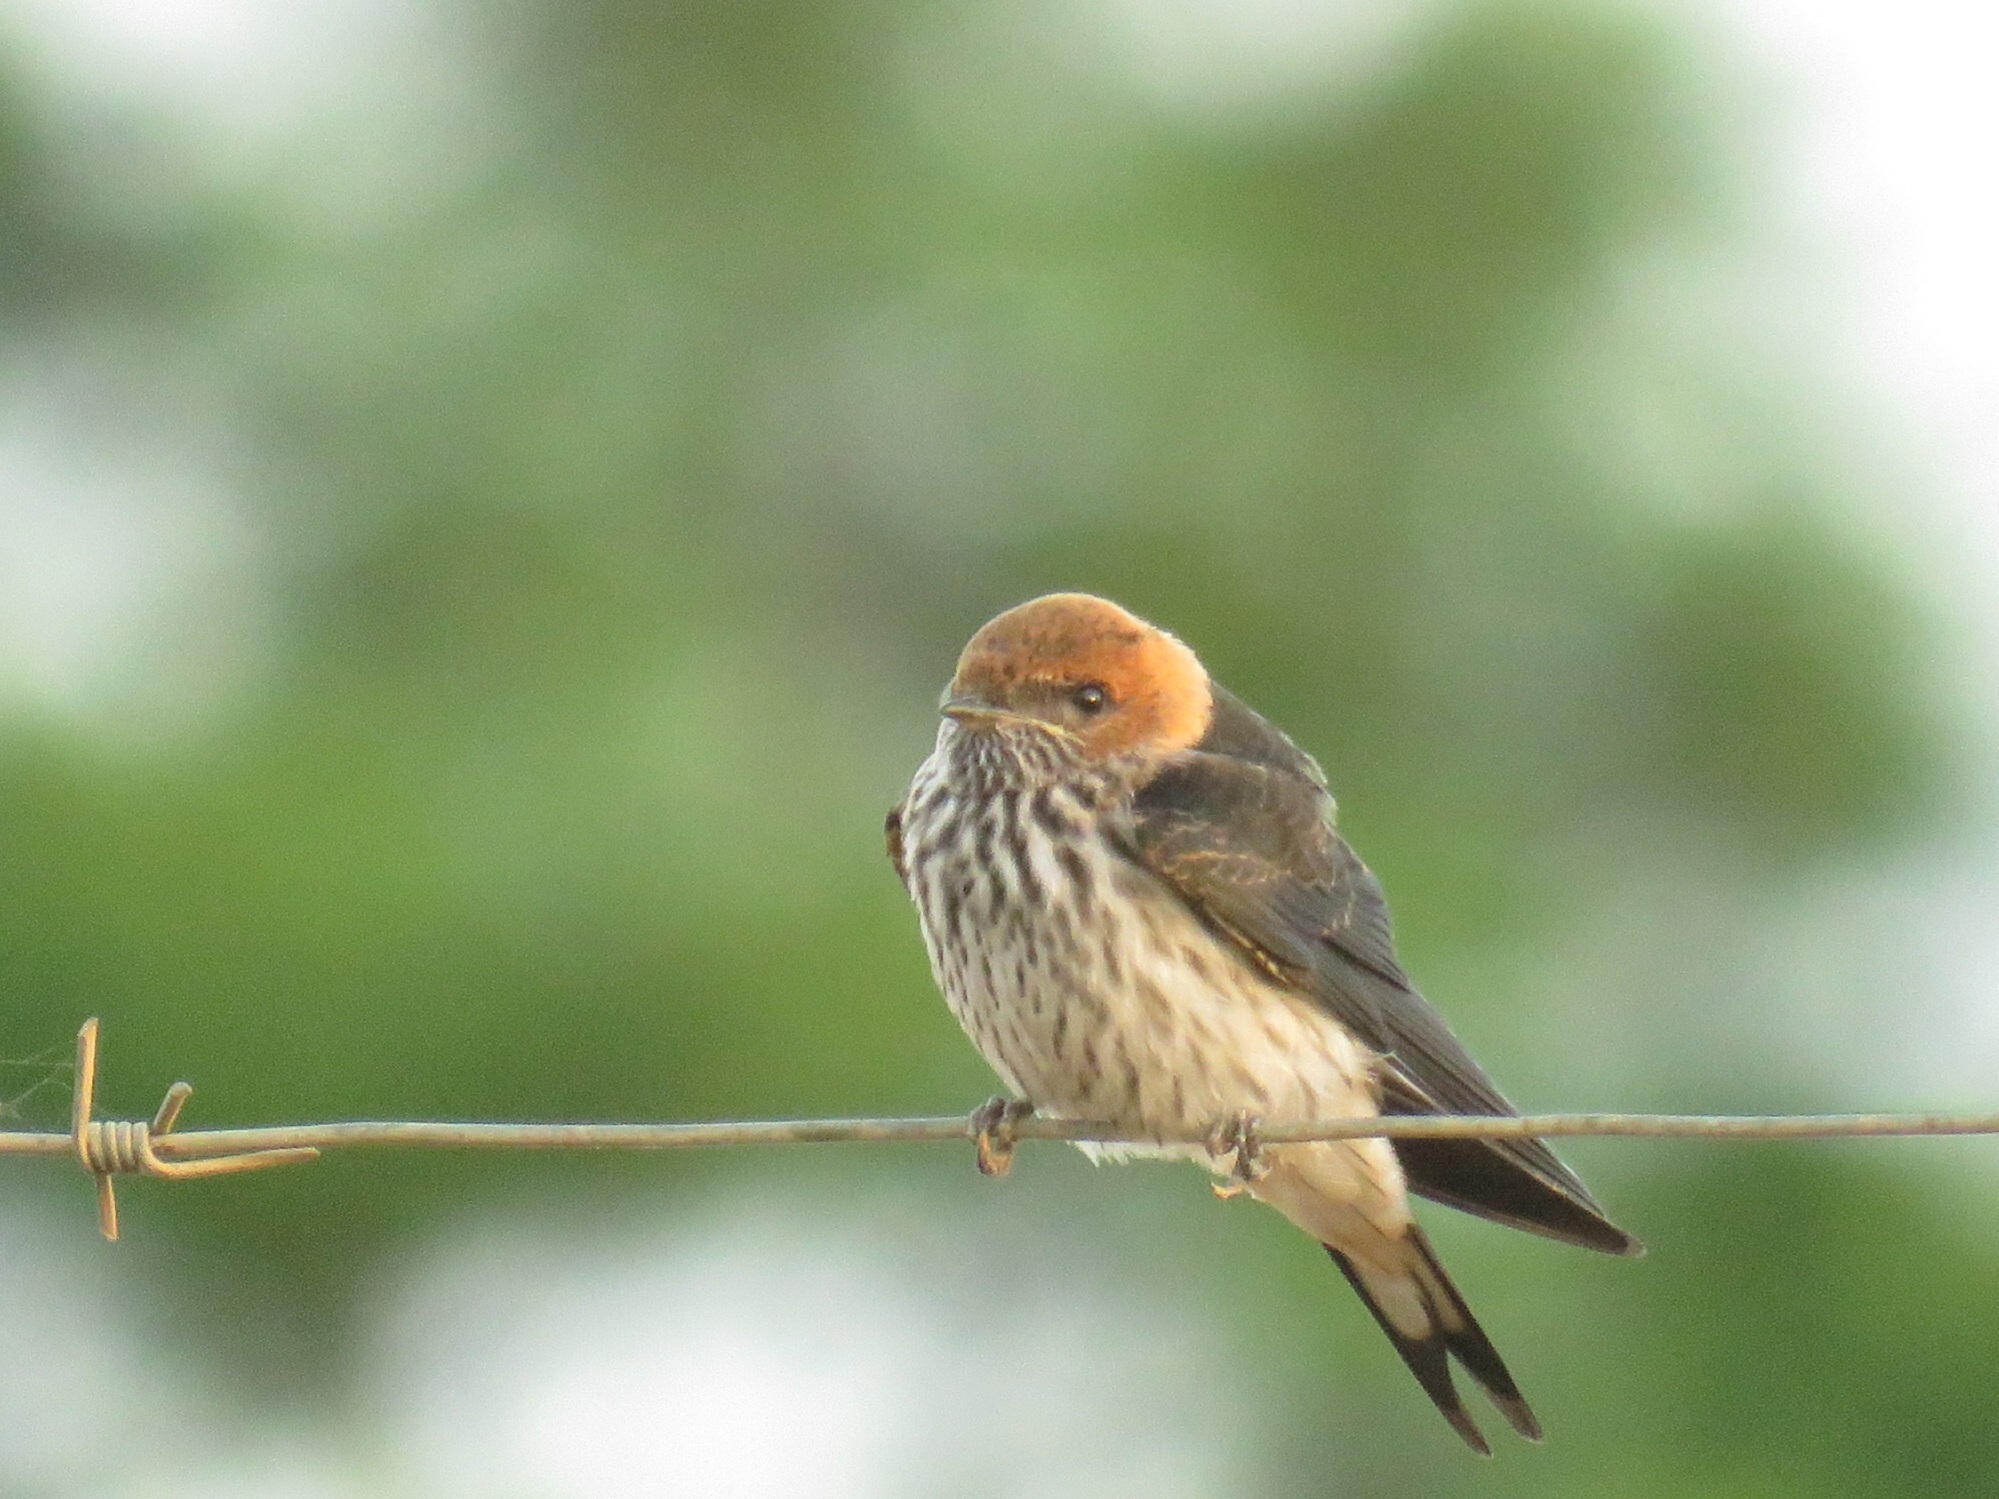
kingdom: Animalia
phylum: Chordata
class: Aves
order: Passeriformes
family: Hirundinidae
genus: Cecropis
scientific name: Cecropis abyssinica
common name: Lesser striped-swallow
